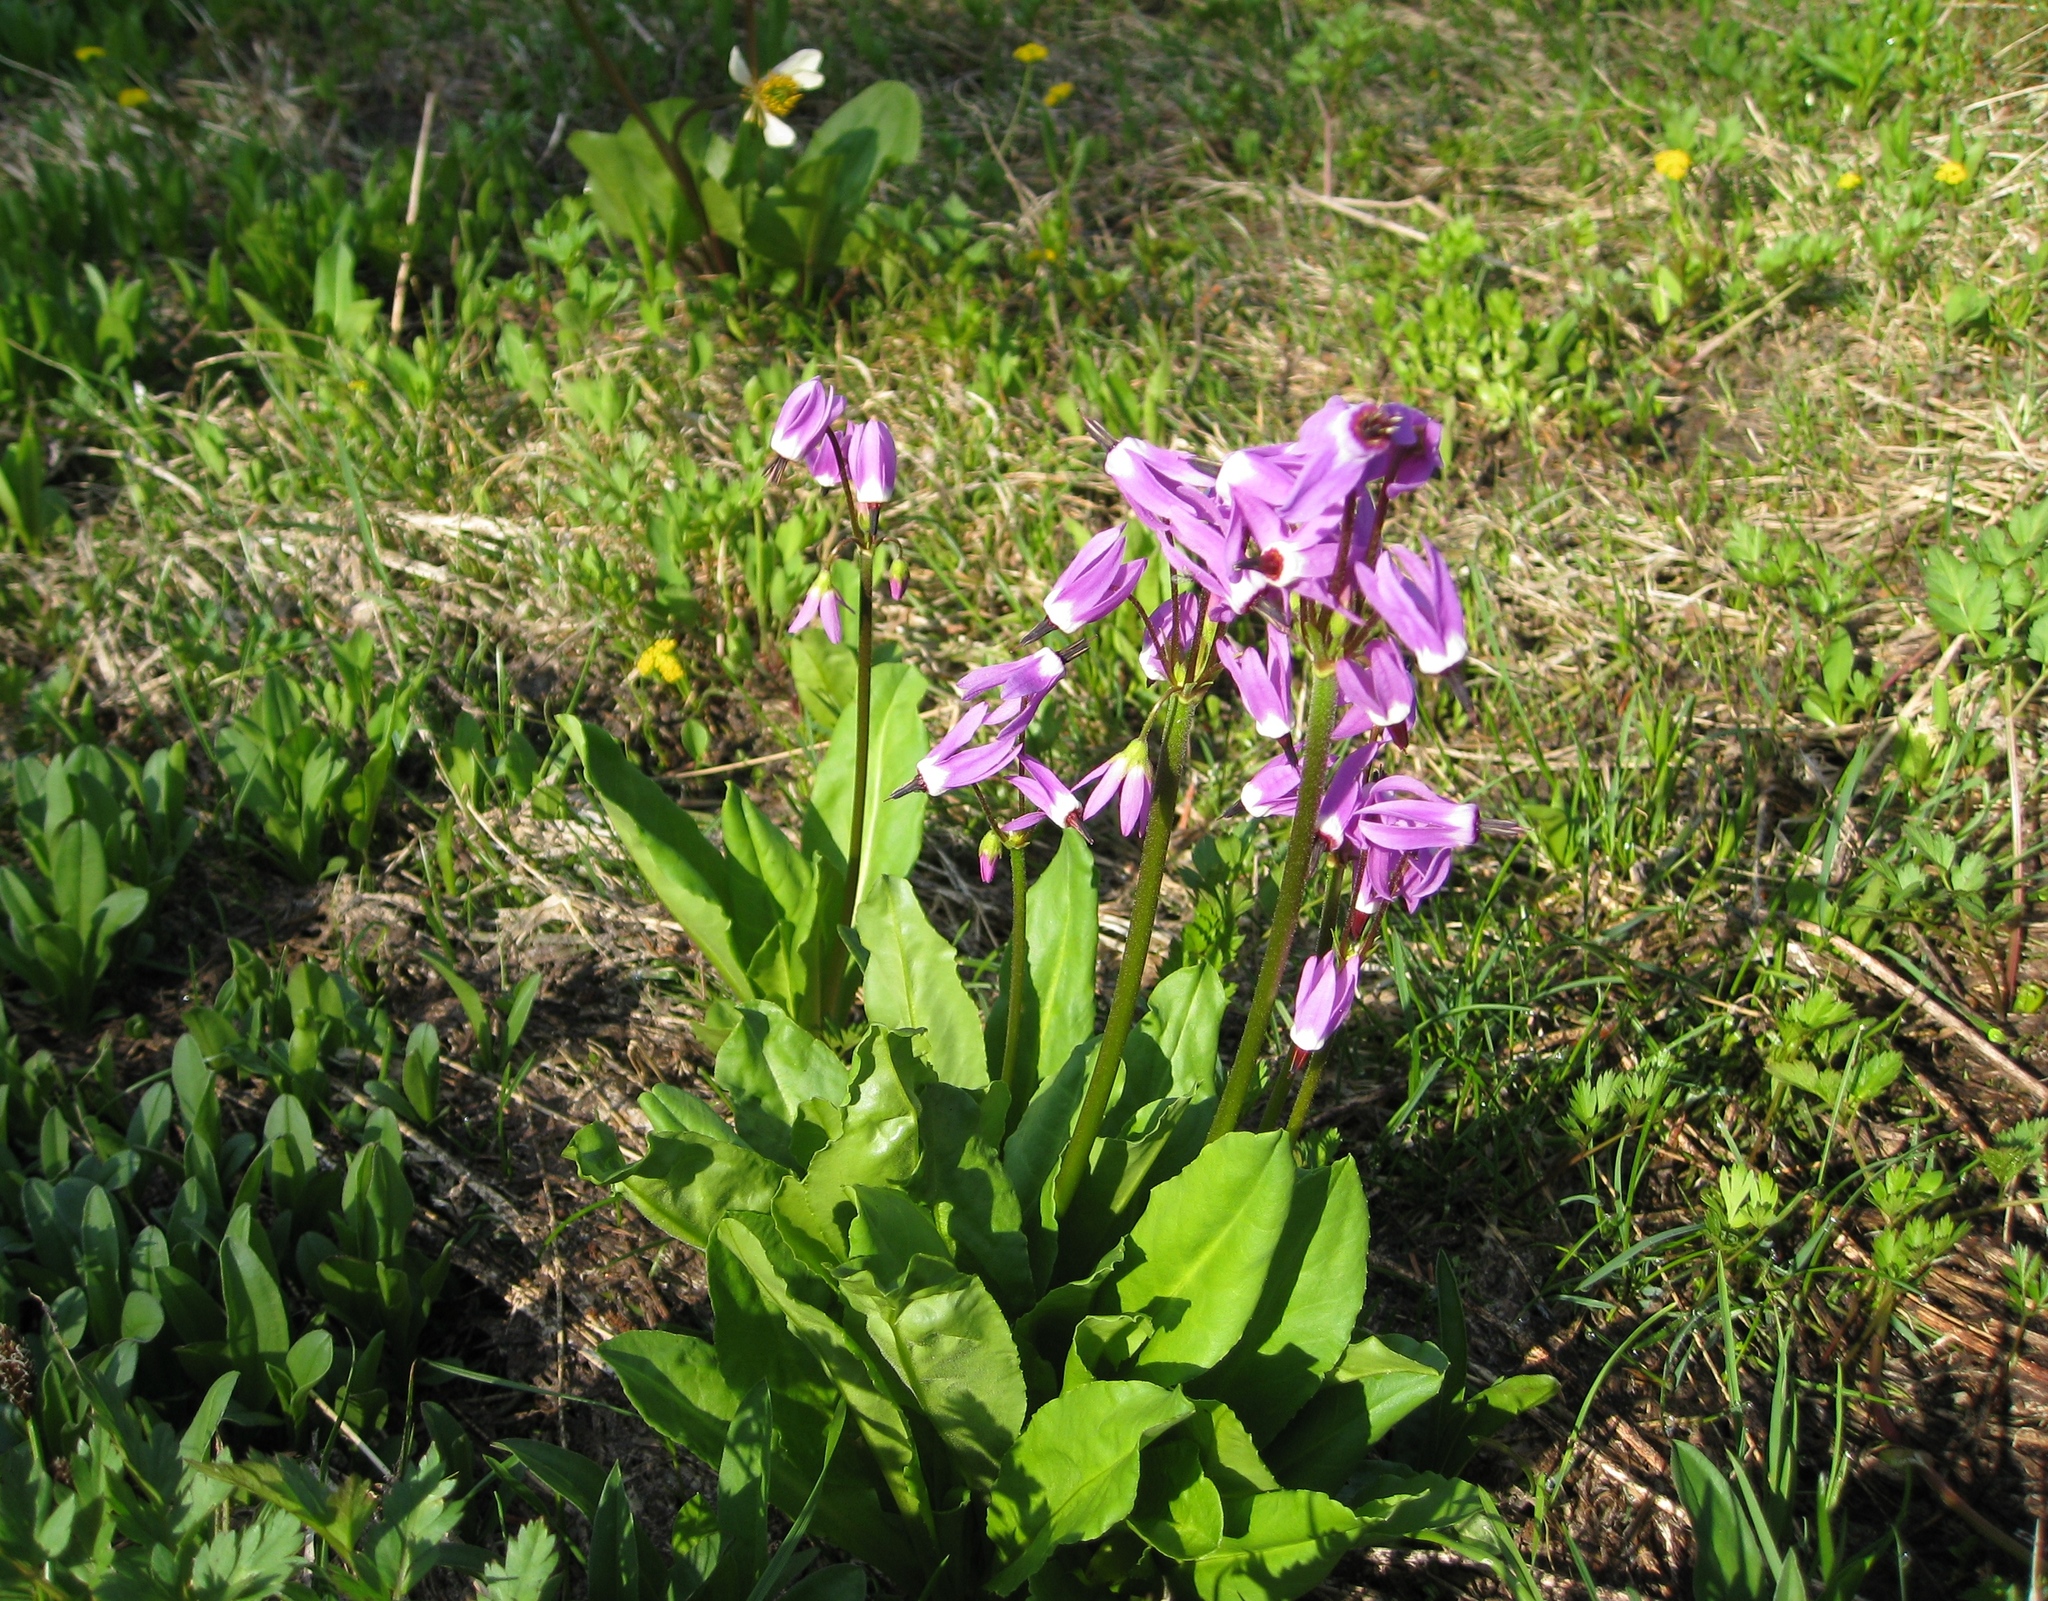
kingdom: Plantae
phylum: Tracheophyta
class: Magnoliopsida
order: Ericales
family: Primulaceae
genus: Dodecatheon
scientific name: Dodecatheon jeffreyanum
